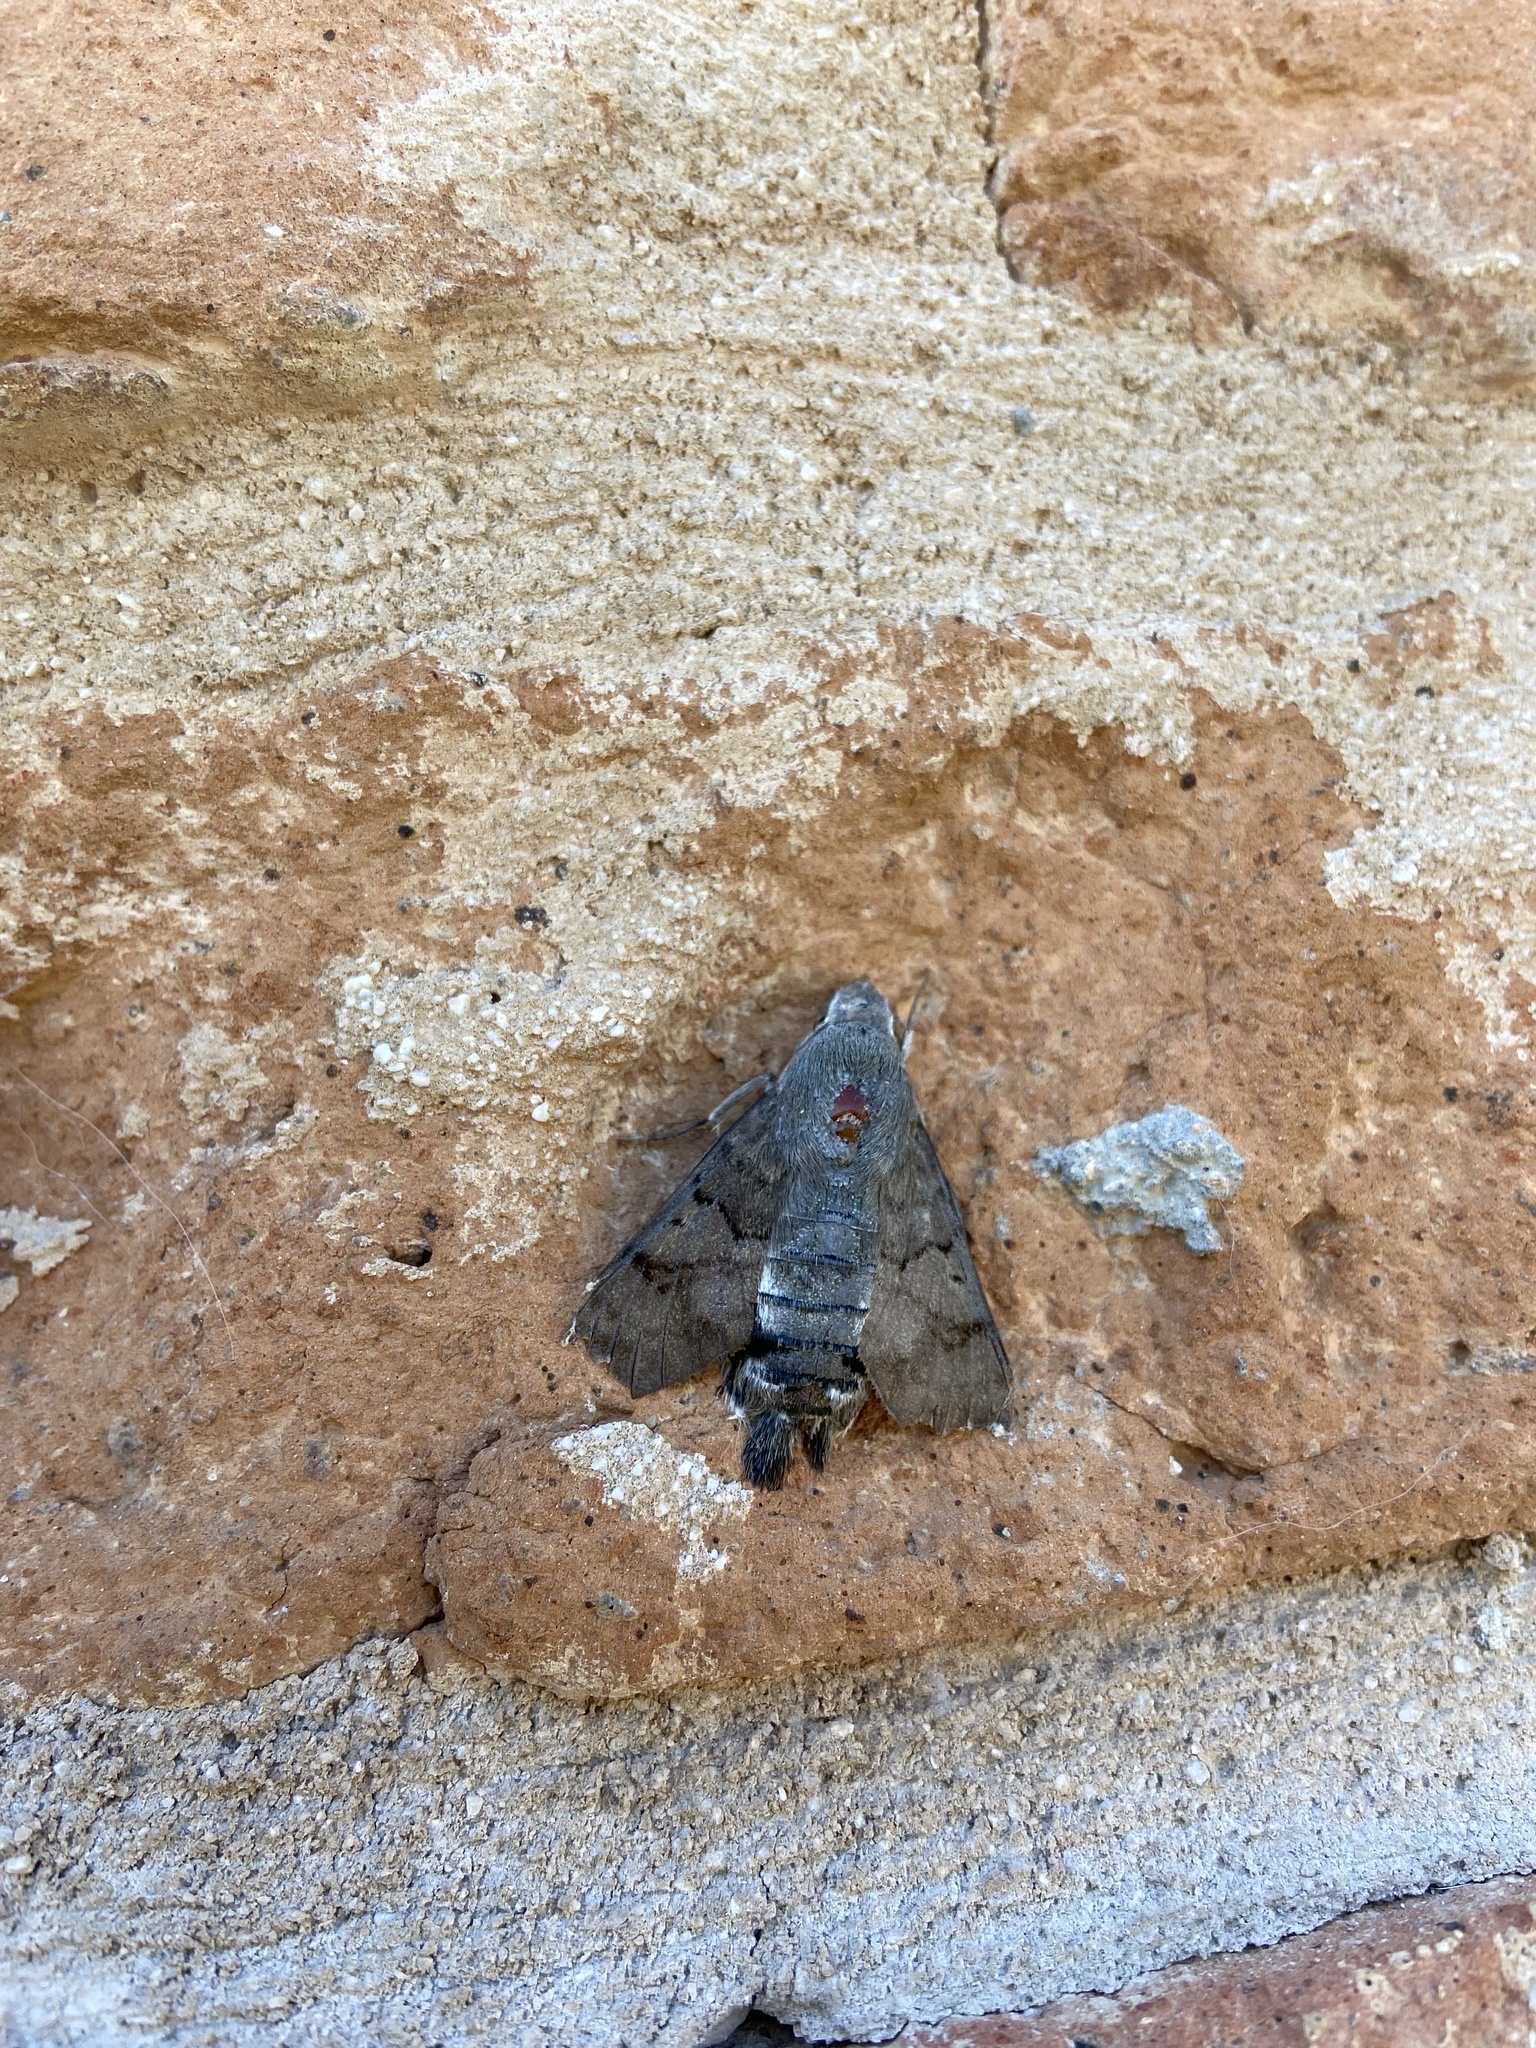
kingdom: Animalia
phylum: Arthropoda
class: Insecta
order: Lepidoptera
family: Sphingidae
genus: Macroglossum
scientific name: Macroglossum stellatarum
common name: Humming-bird hawk-moth
